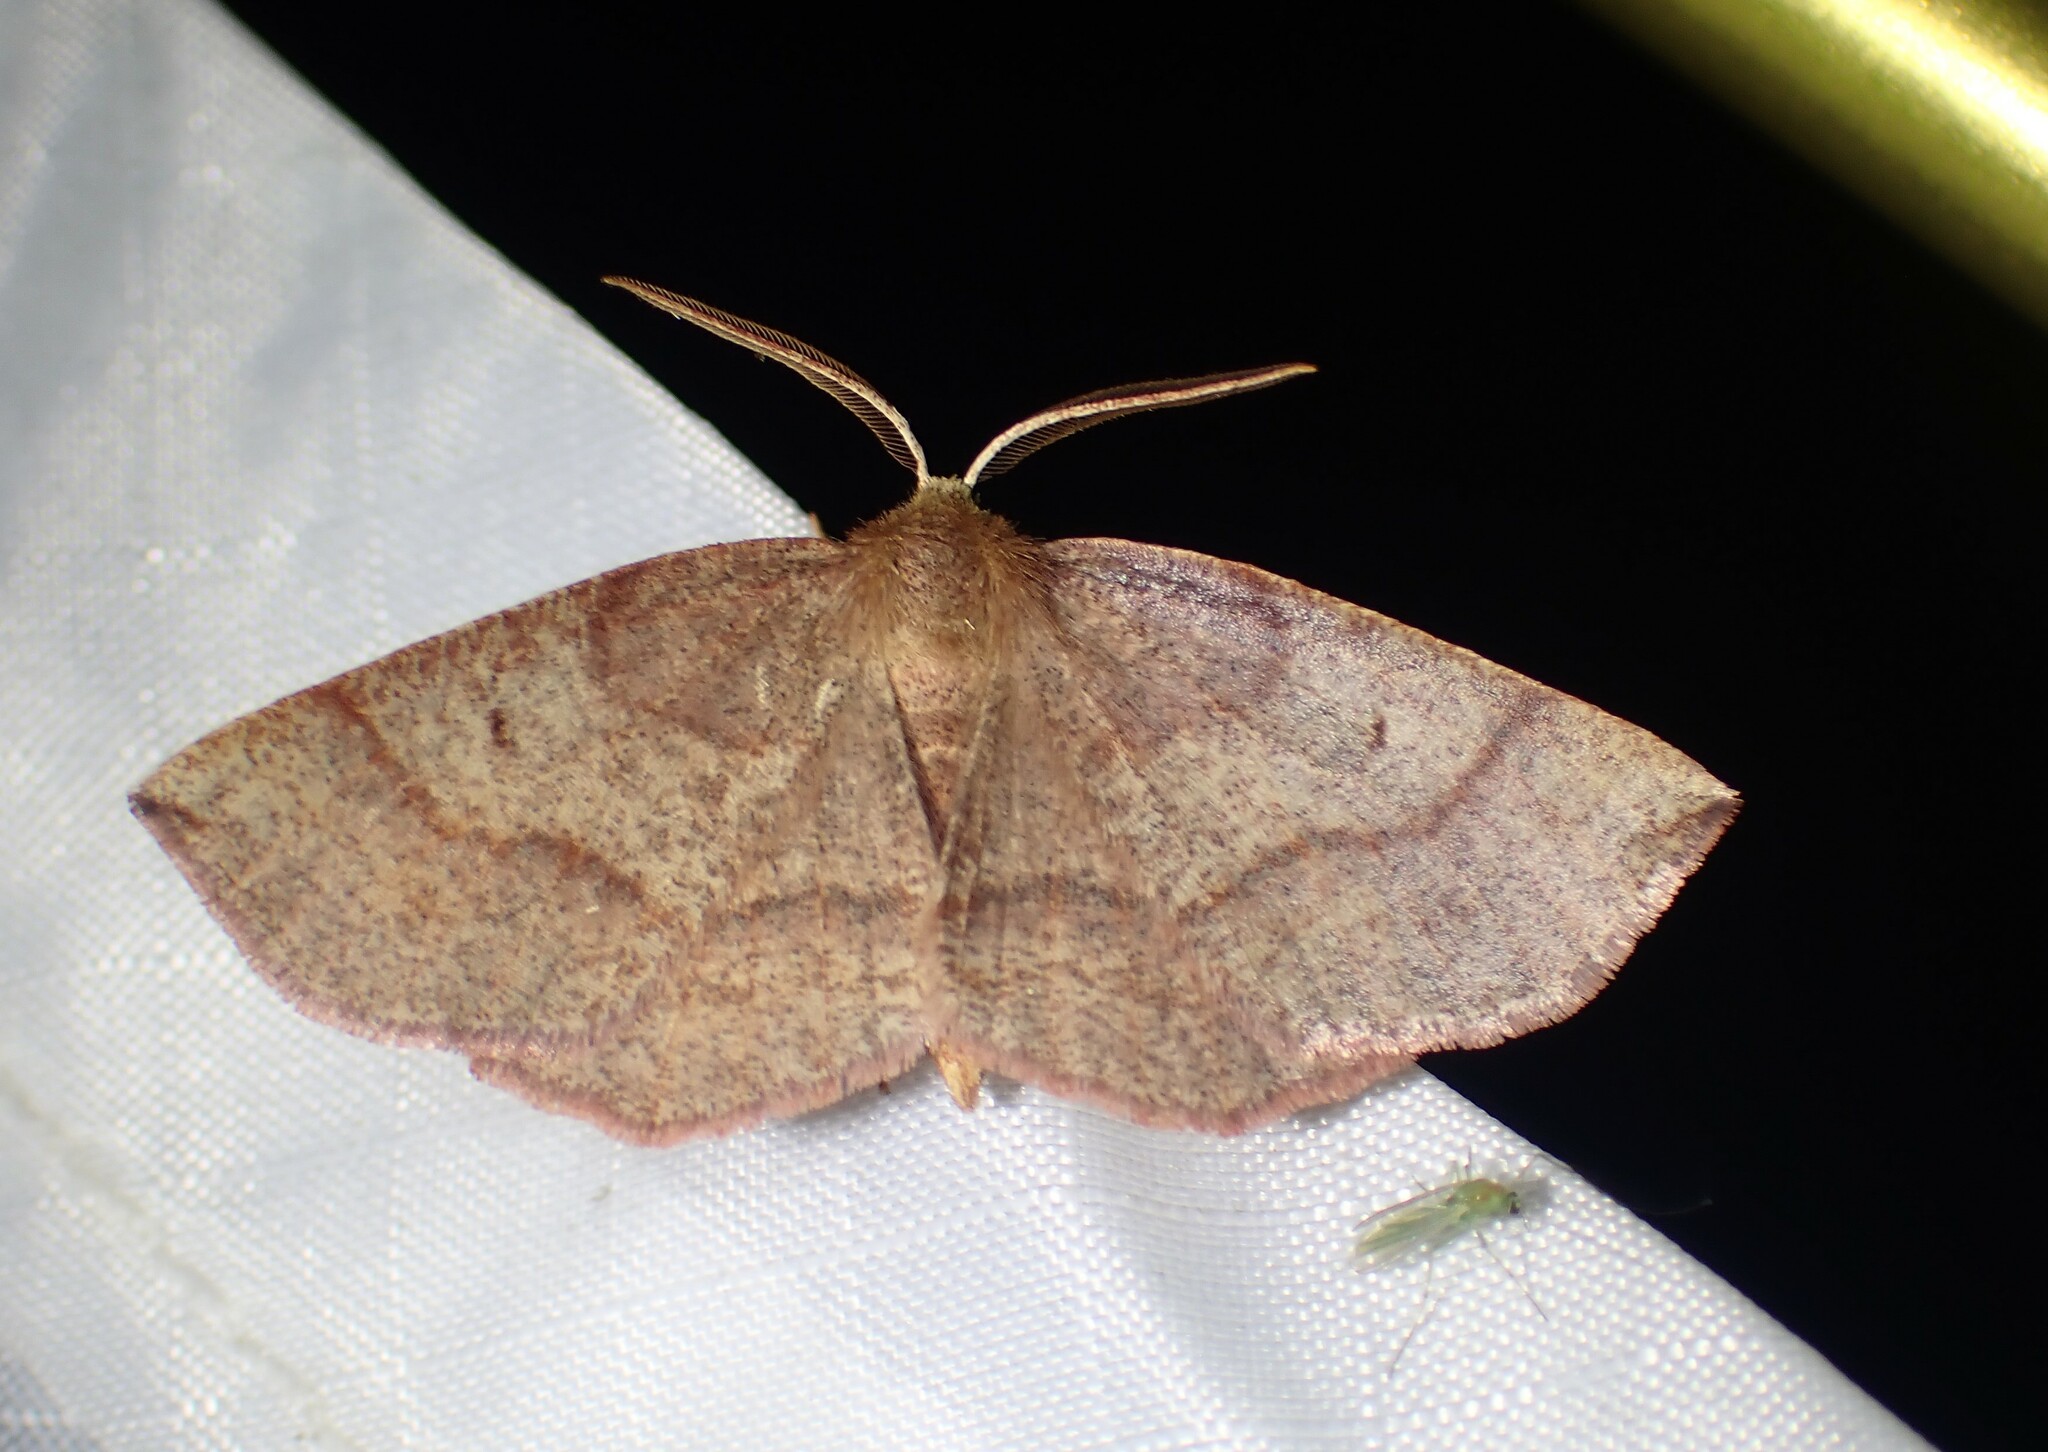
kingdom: Animalia
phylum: Arthropoda
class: Insecta
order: Lepidoptera
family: Geometridae
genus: Metarranthis
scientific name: Metarranthis amyrisaria
